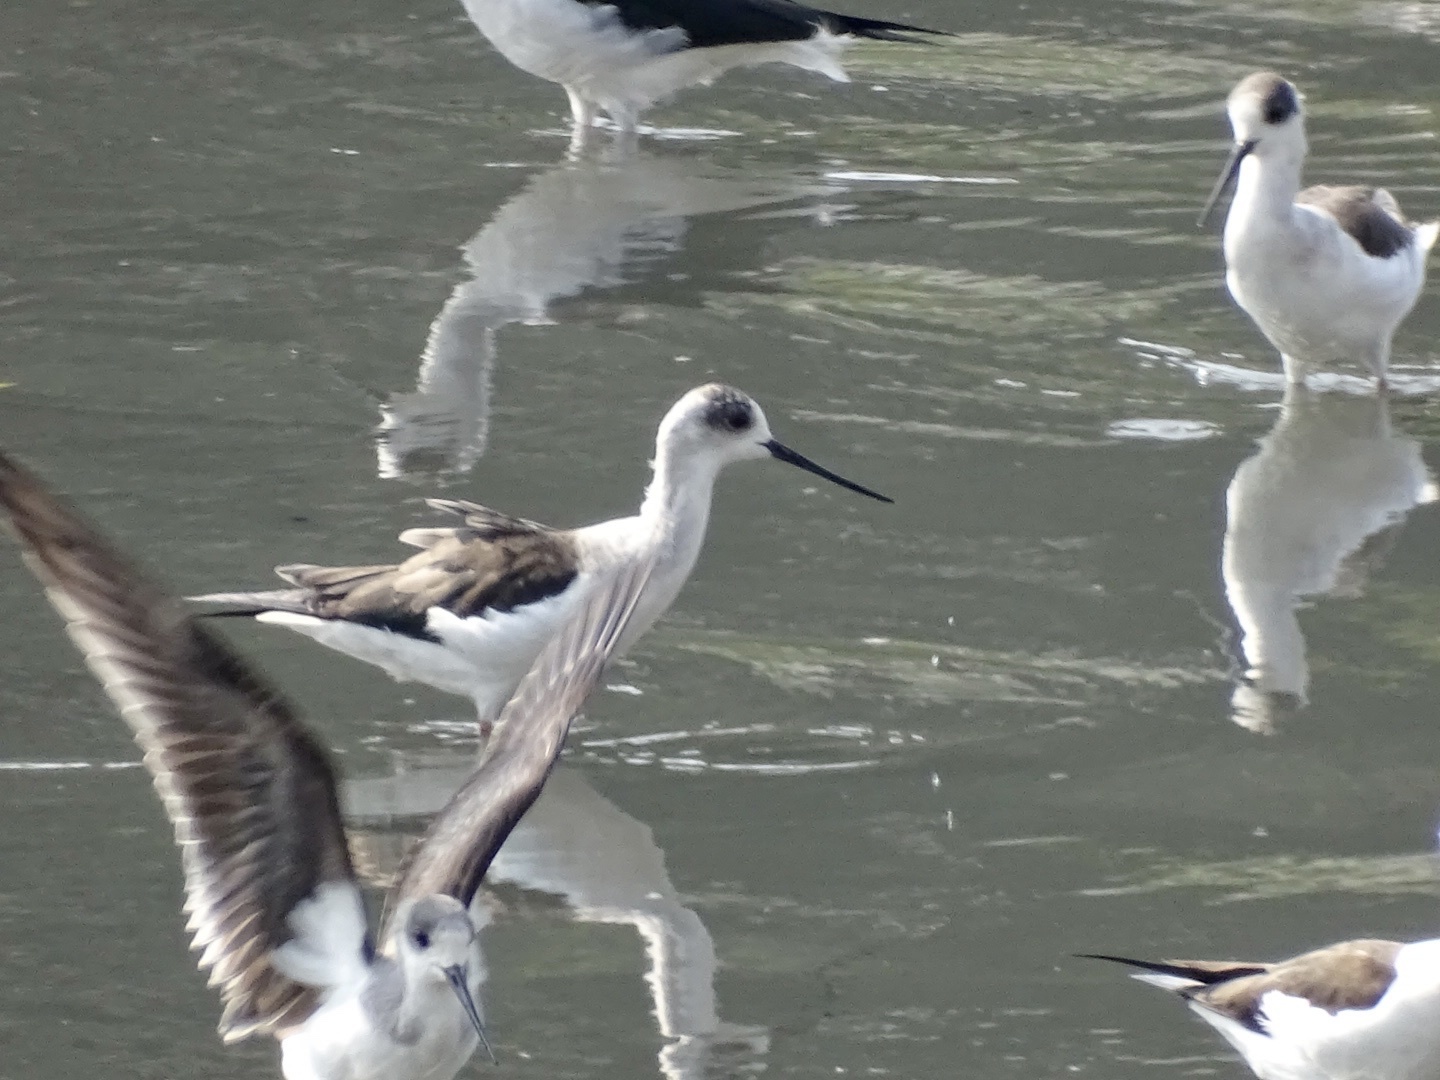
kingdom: Animalia
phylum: Chordata
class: Aves
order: Charadriiformes
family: Recurvirostridae
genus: Himantopus
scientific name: Himantopus himantopus
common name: Black-winged stilt
